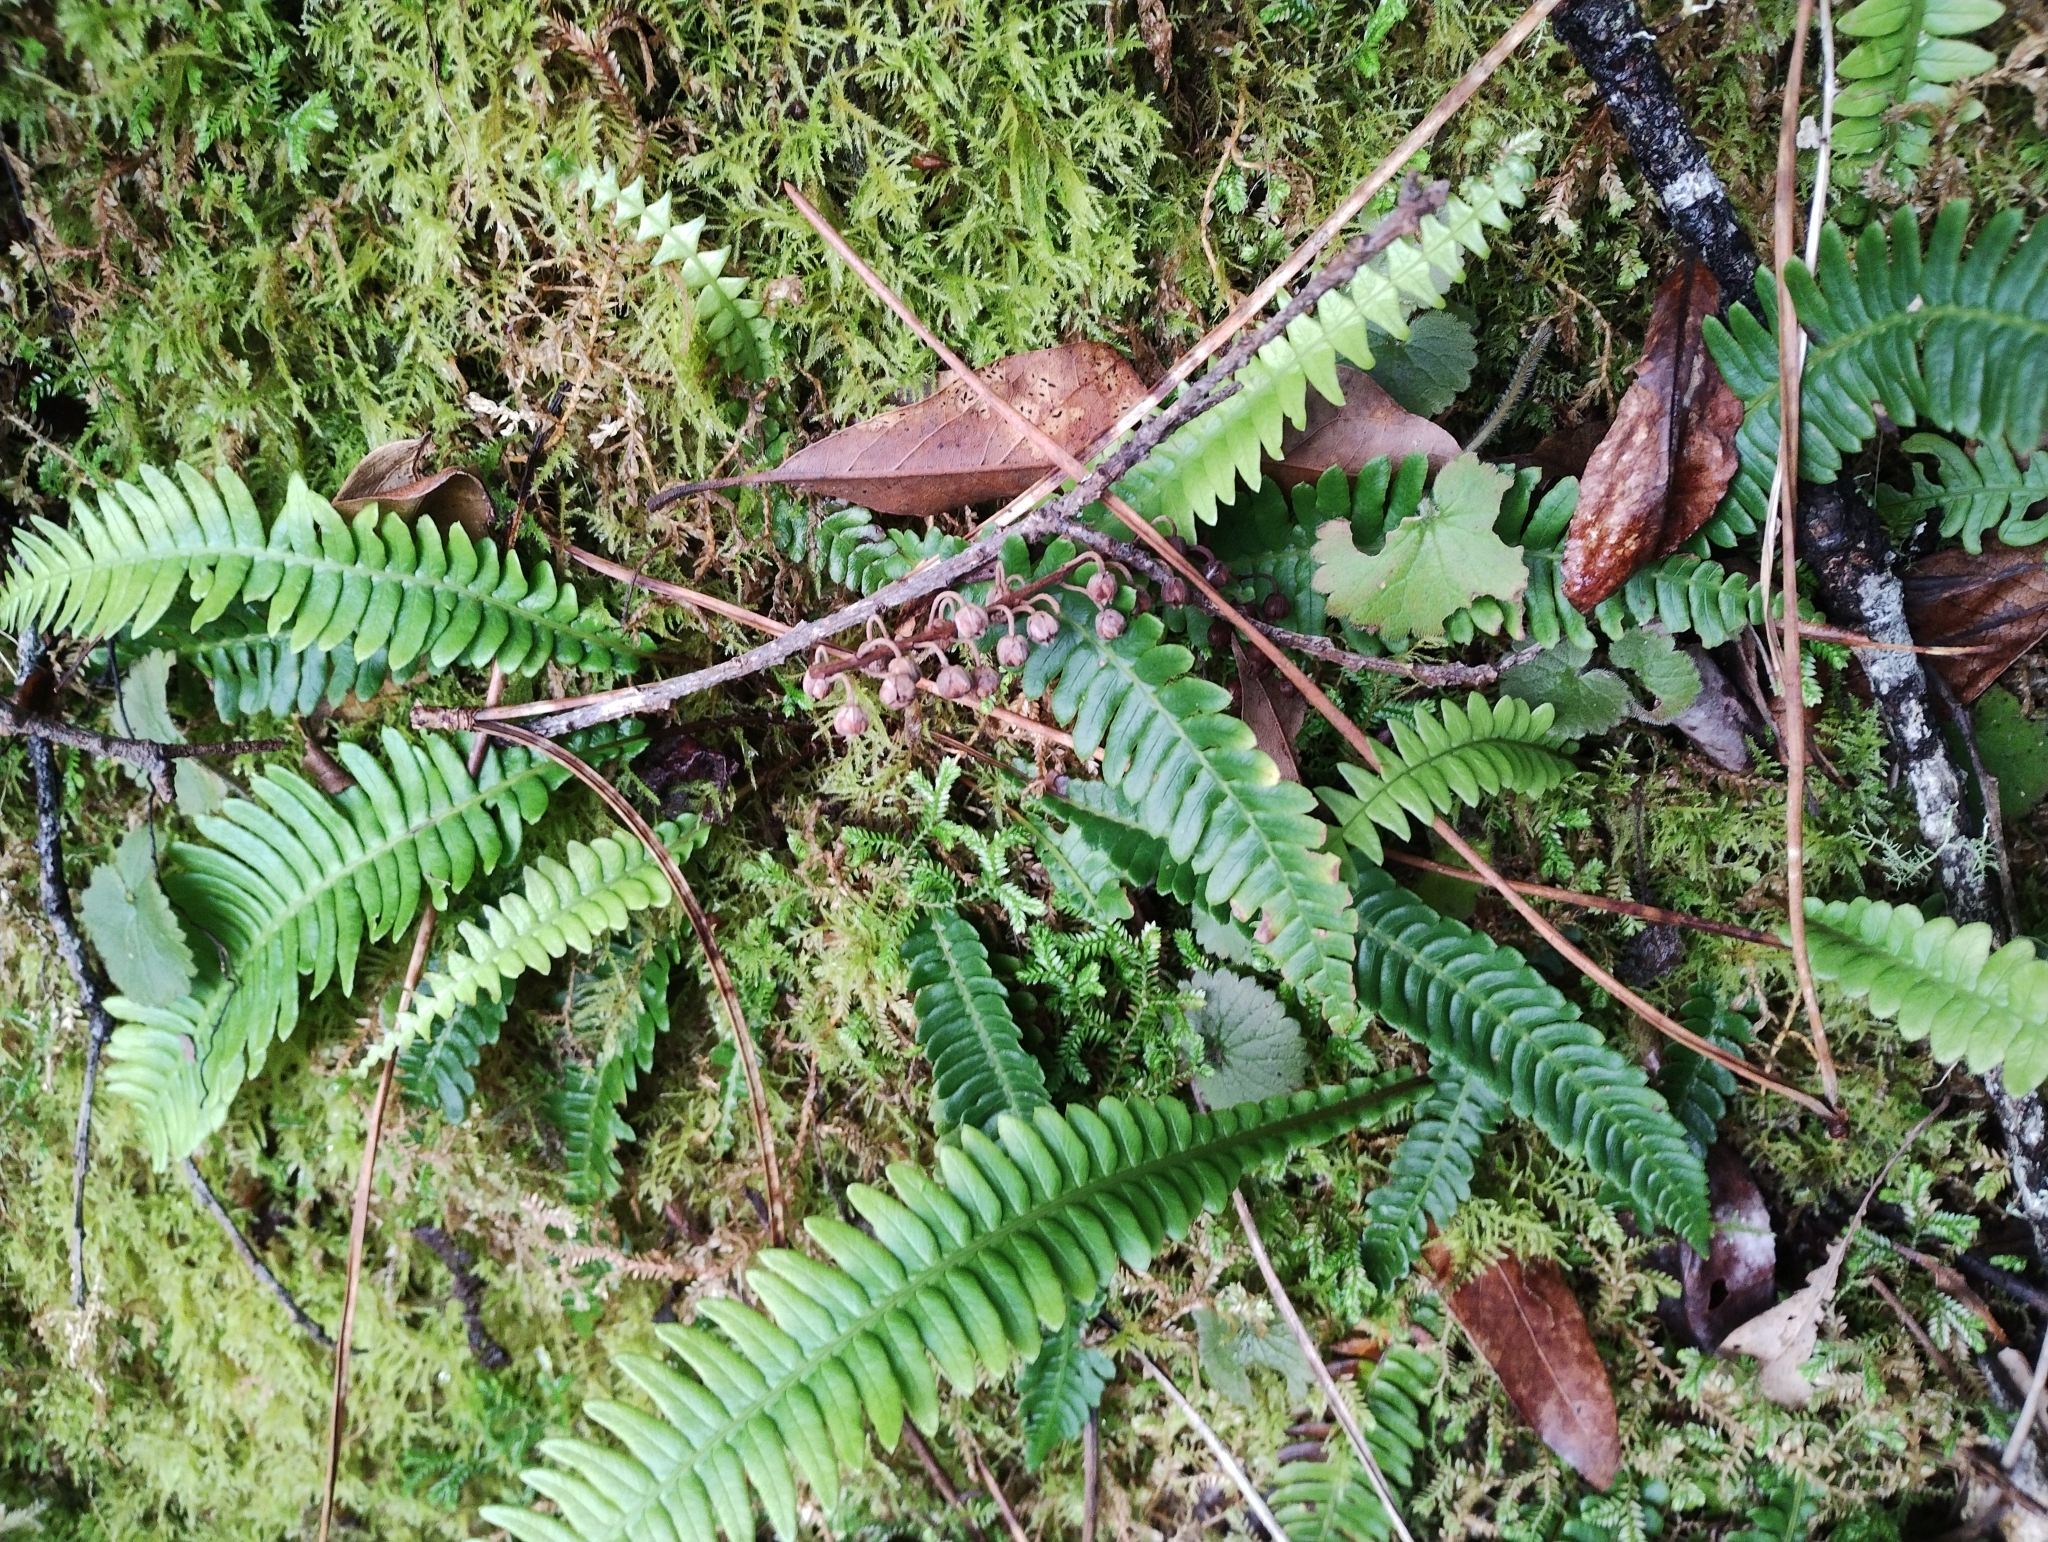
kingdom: Plantae
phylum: Tracheophyta
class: Polypodiopsida
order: Polypodiales
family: Blechnaceae
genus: Struthiopteris
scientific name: Struthiopteris spicant
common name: Deer fern
